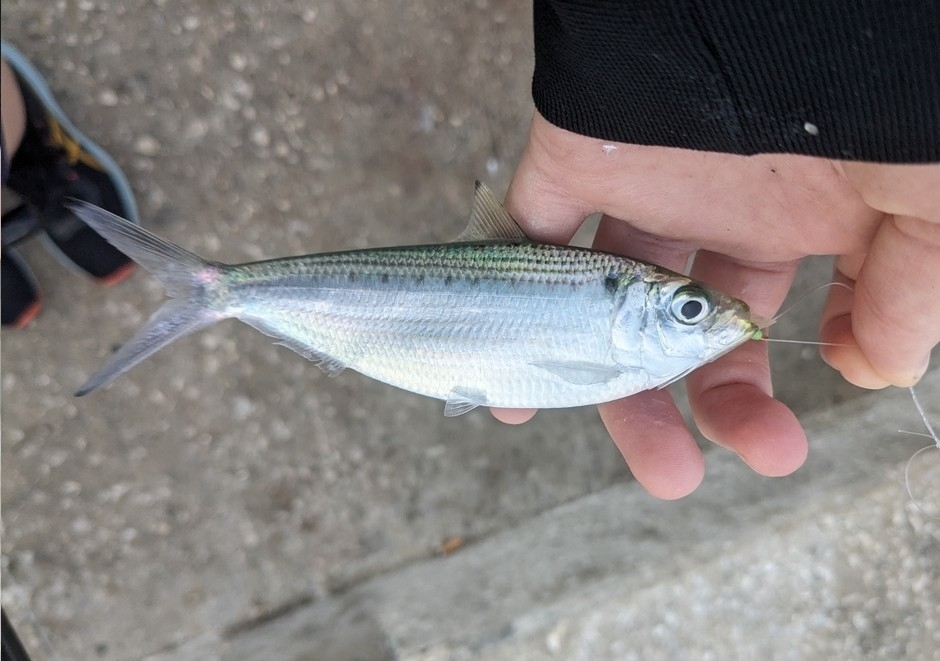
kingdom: Animalia
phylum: Chordata
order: Clupeiformes
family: Clupeidae
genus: Opisthonema
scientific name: Opisthonema oglinum
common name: Thread herring
